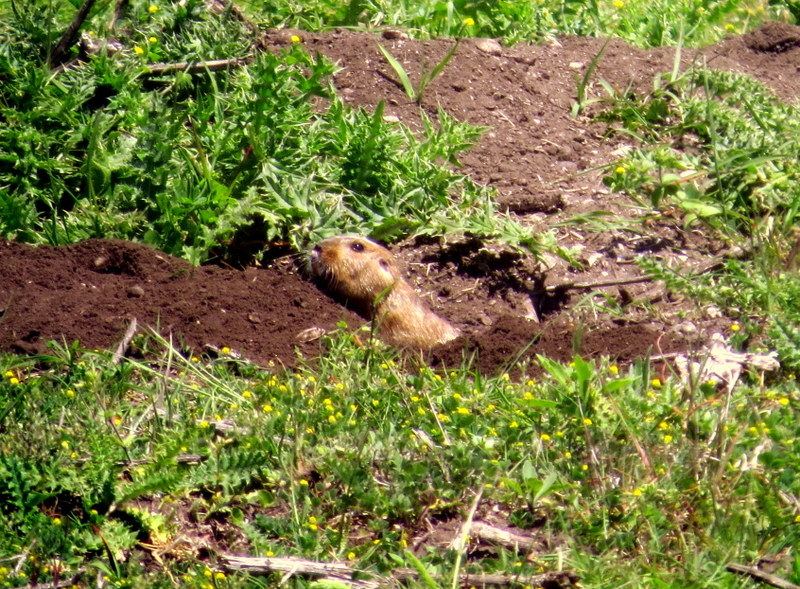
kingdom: Animalia
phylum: Chordata
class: Mammalia
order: Rodentia
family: Ctenomyidae
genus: Ctenomys
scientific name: Ctenomys talarum
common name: Talas tuco-tuco
